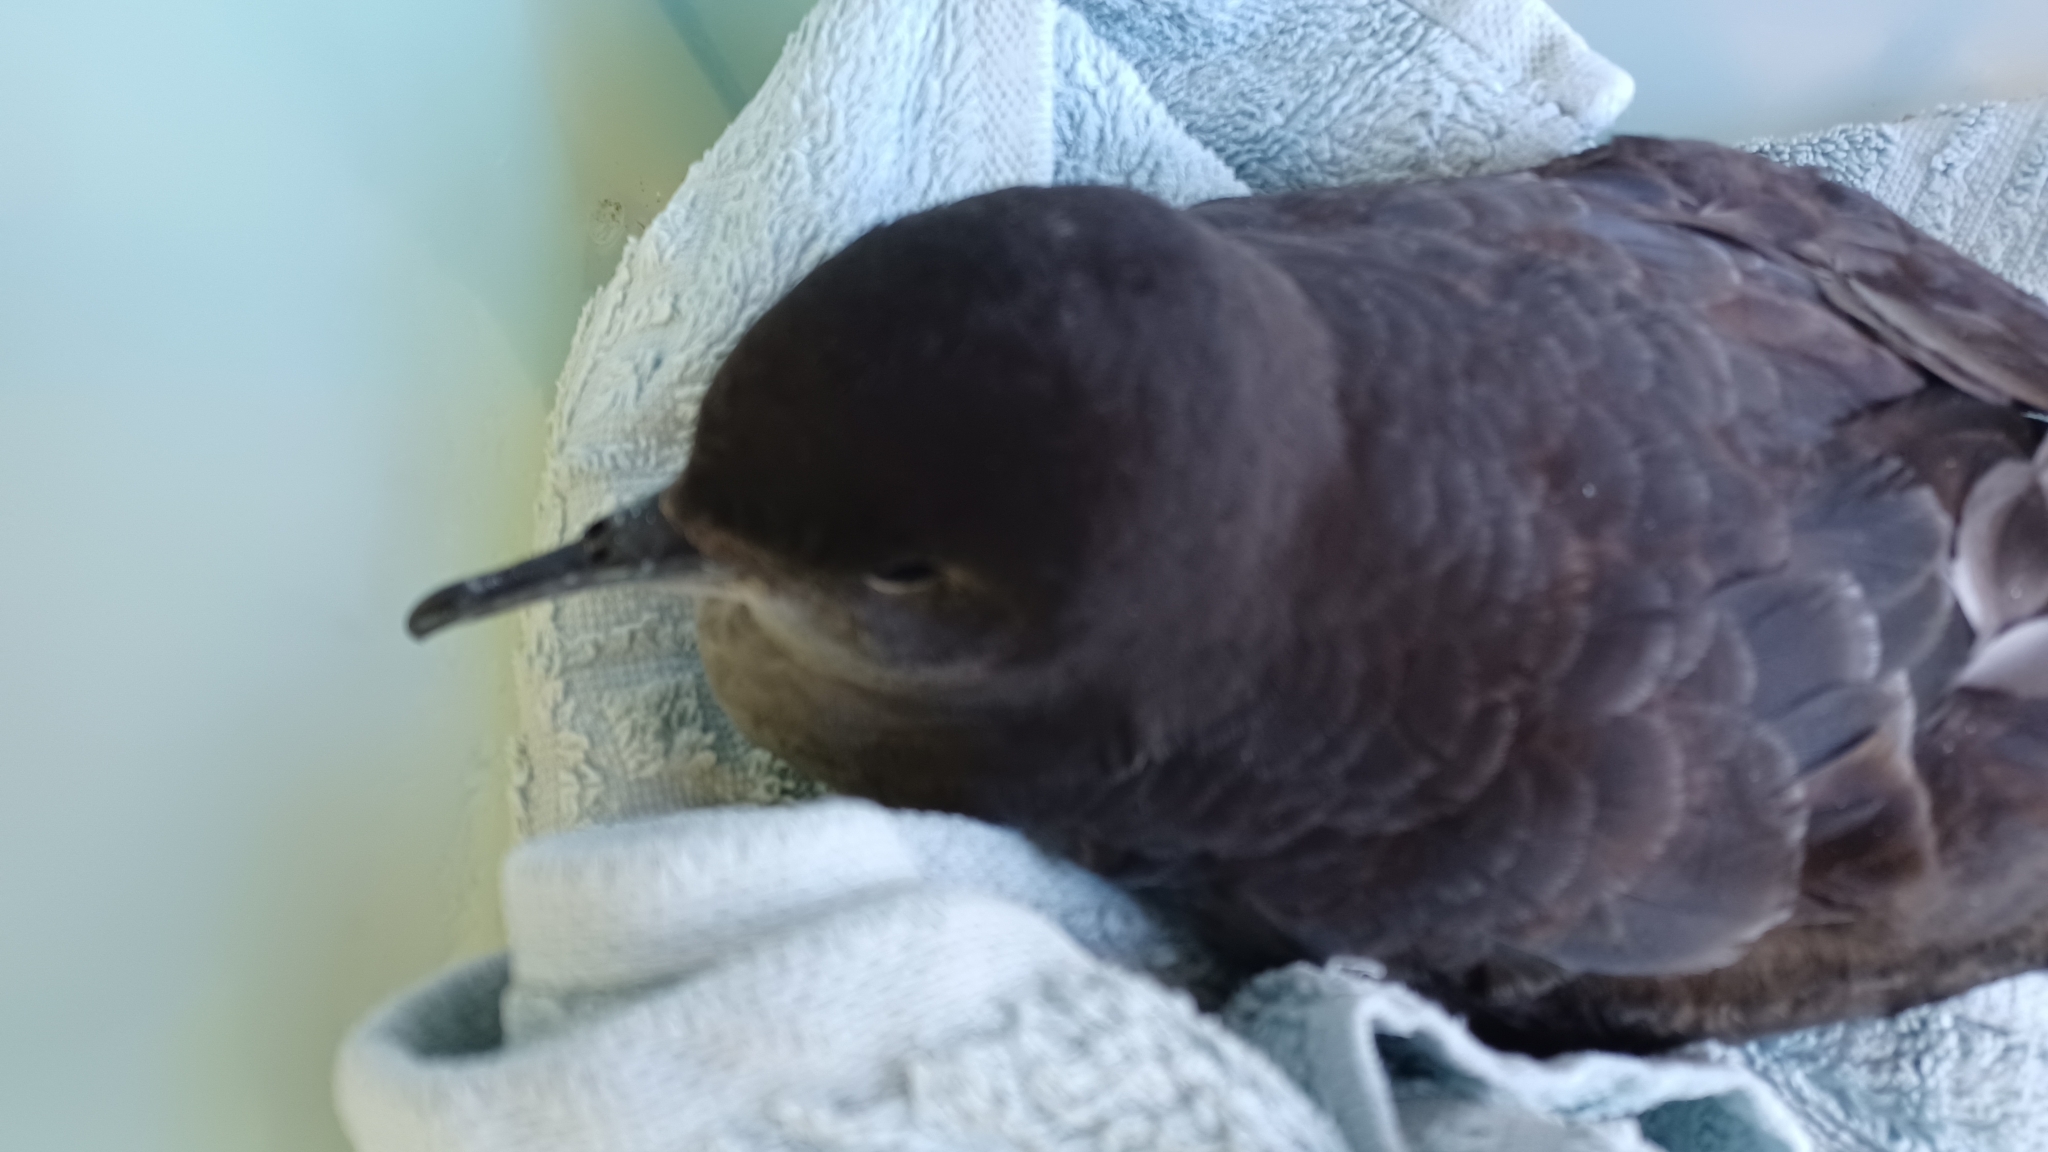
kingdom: Animalia
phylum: Chordata
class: Aves
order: Procellariiformes
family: Procellariidae
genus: Puffinus
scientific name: Puffinus tenuirostris
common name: Short-tailed shearwater
